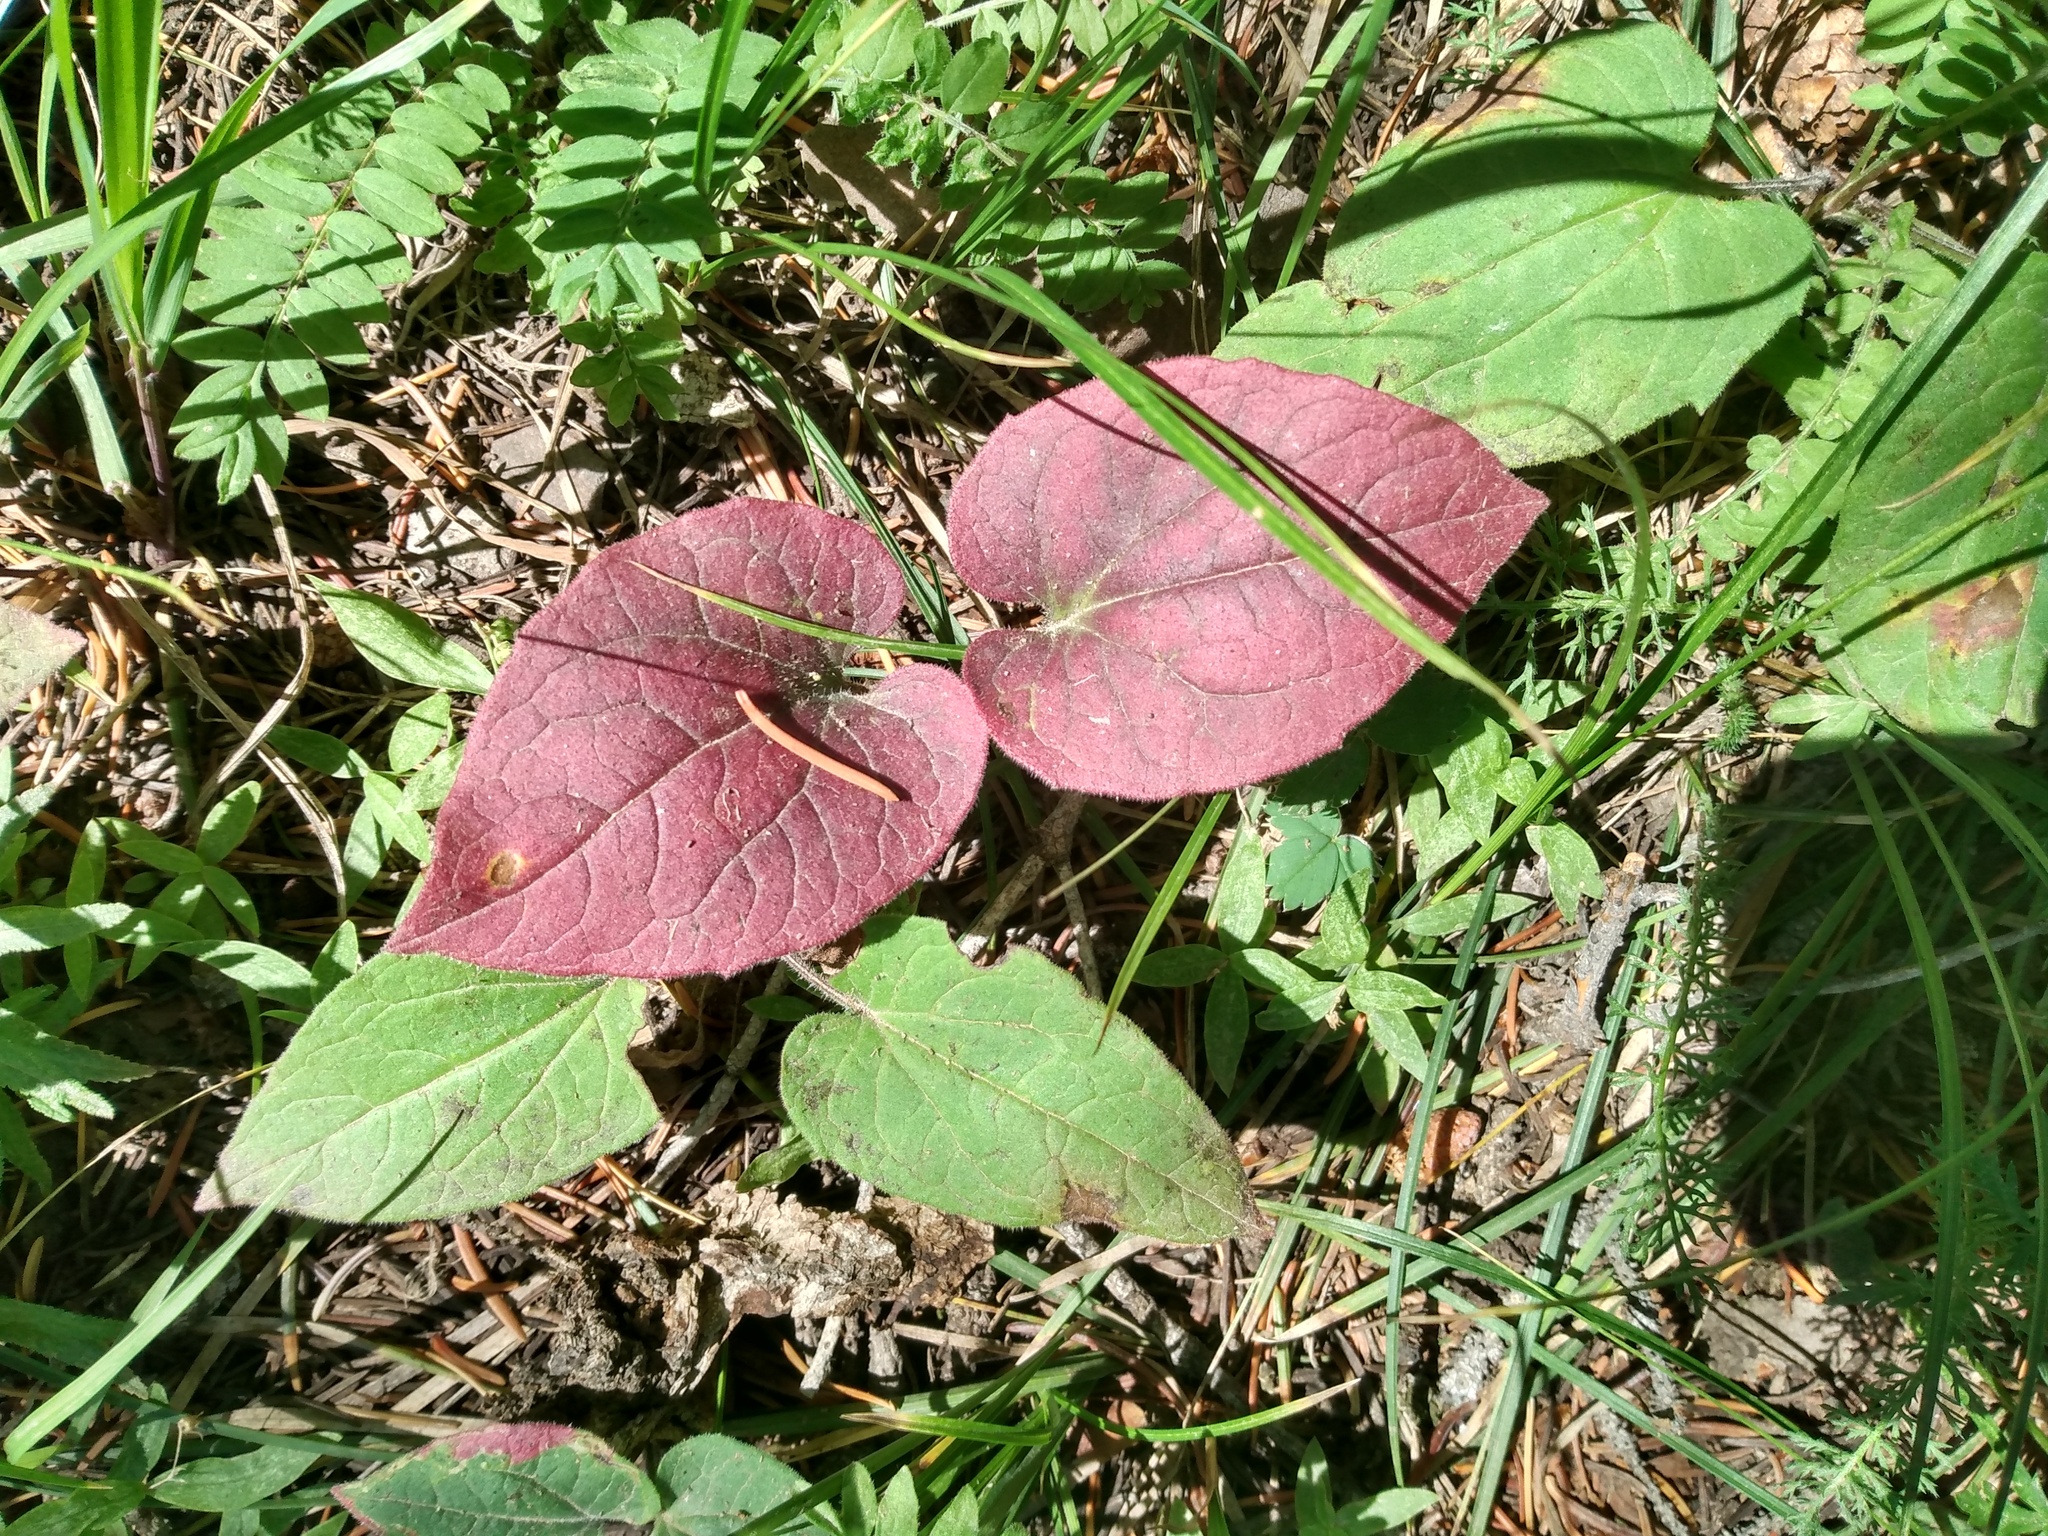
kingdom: Plantae
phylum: Tracheophyta
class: Magnoliopsida
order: Asterales
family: Asteraceae
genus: Arnica
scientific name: Arnica cordifolia
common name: Heart-leaf arnica
